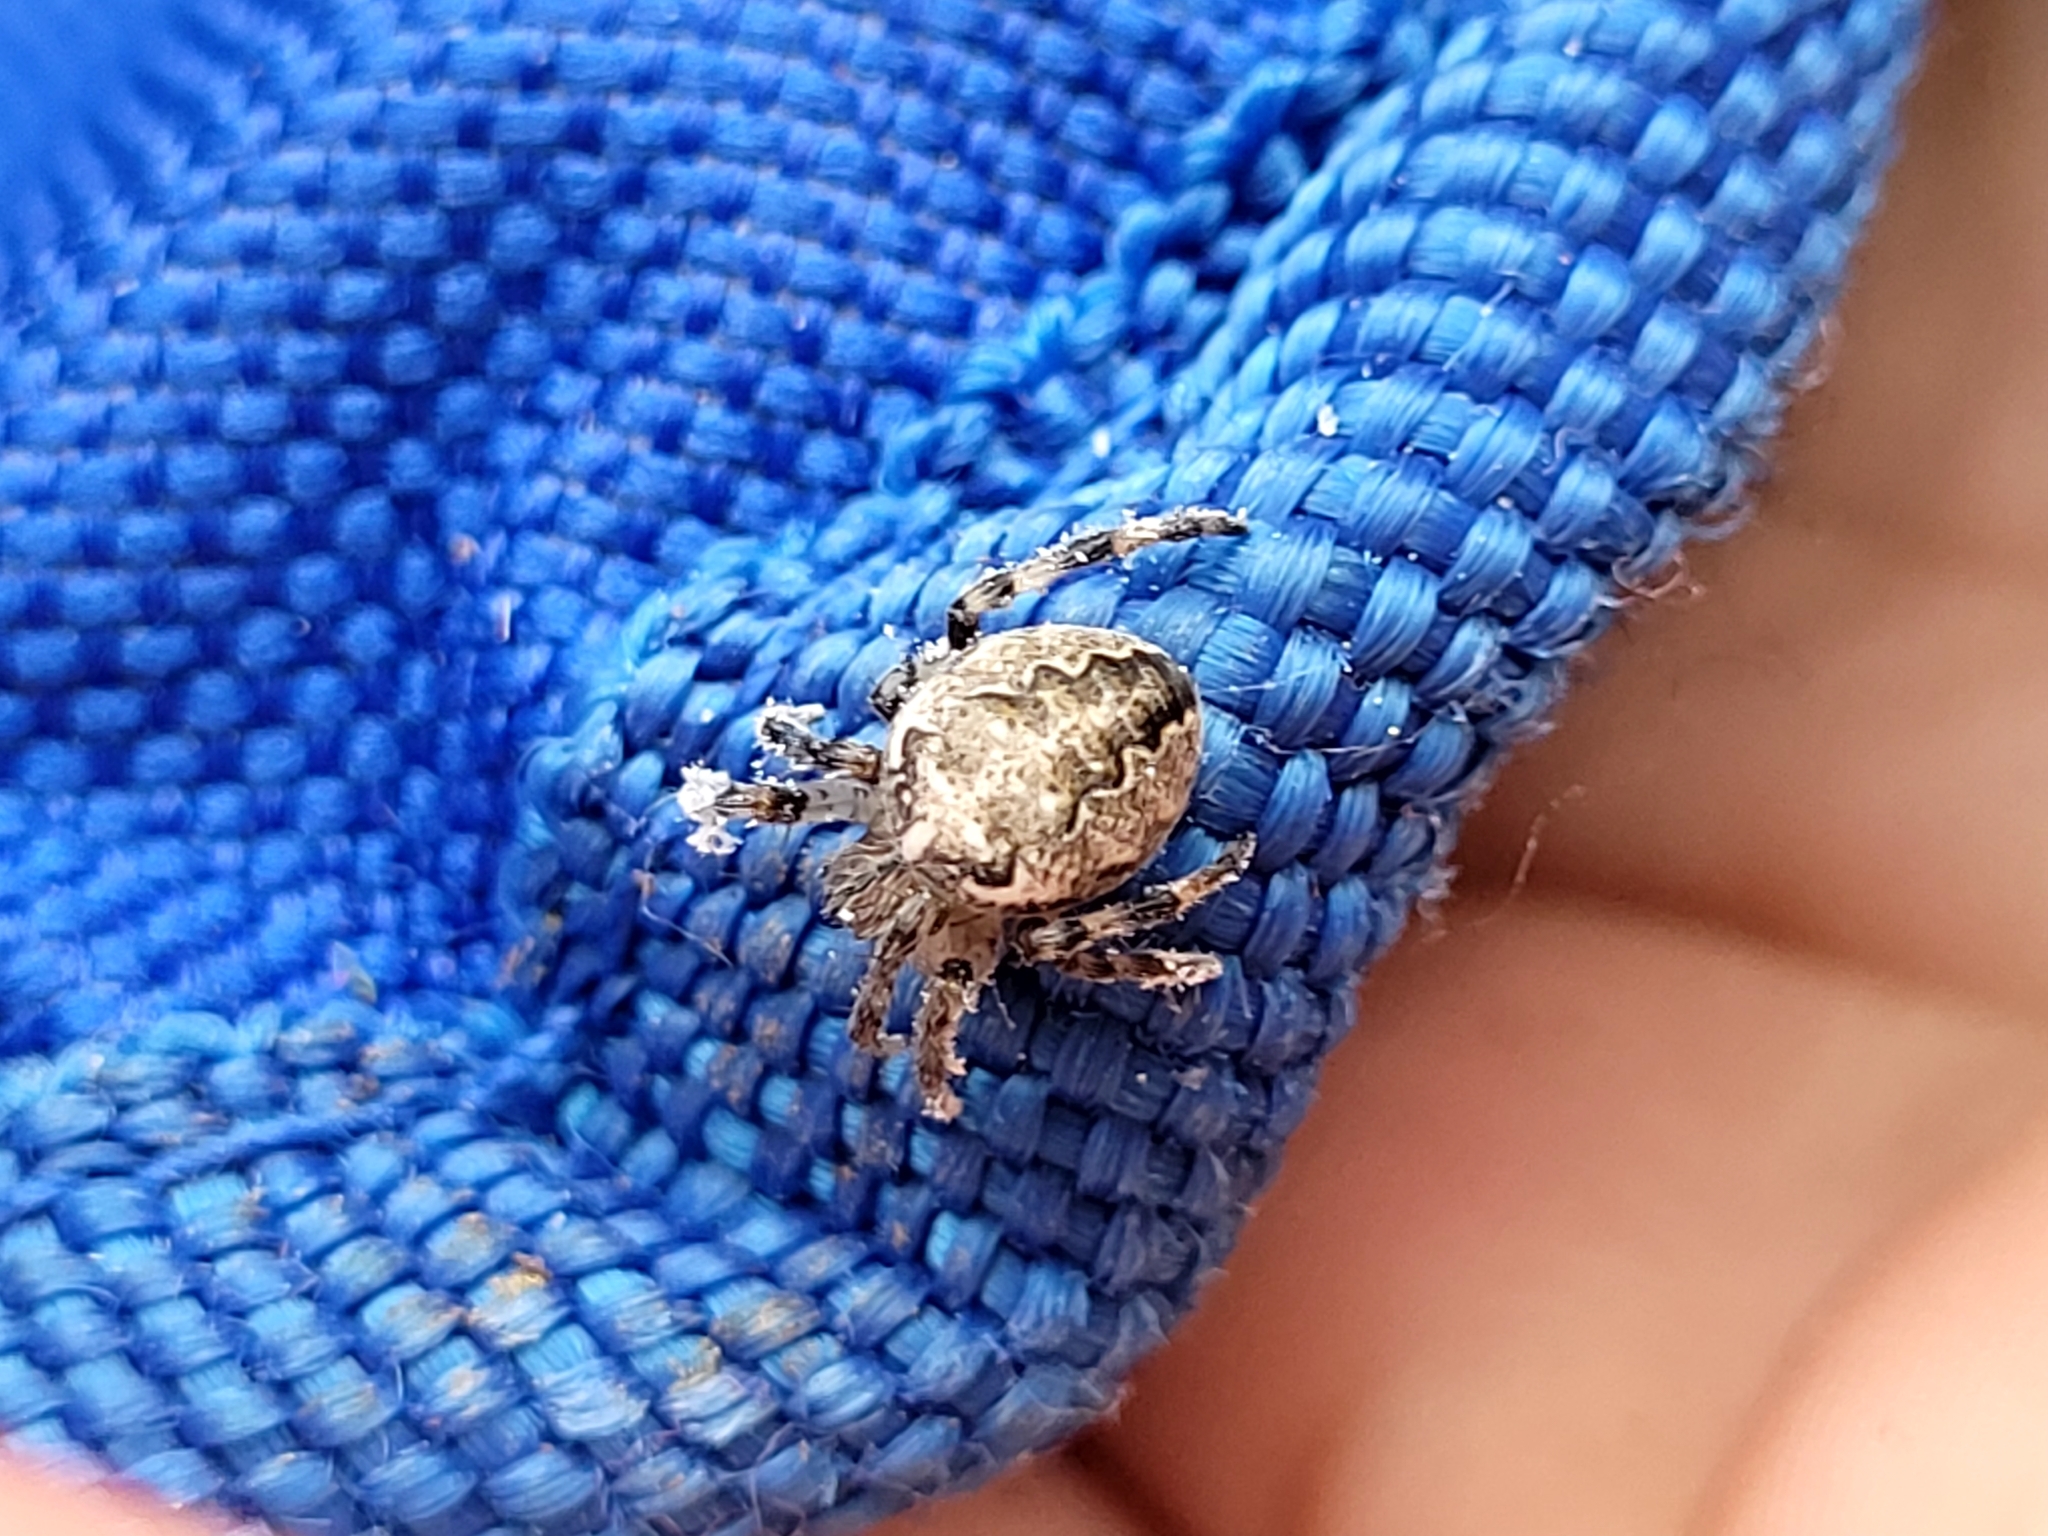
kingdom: Animalia
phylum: Arthropoda
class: Arachnida
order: Araneae
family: Araneidae
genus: Araneus
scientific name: Araneus marmoreus
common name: Marbled orbweaver
